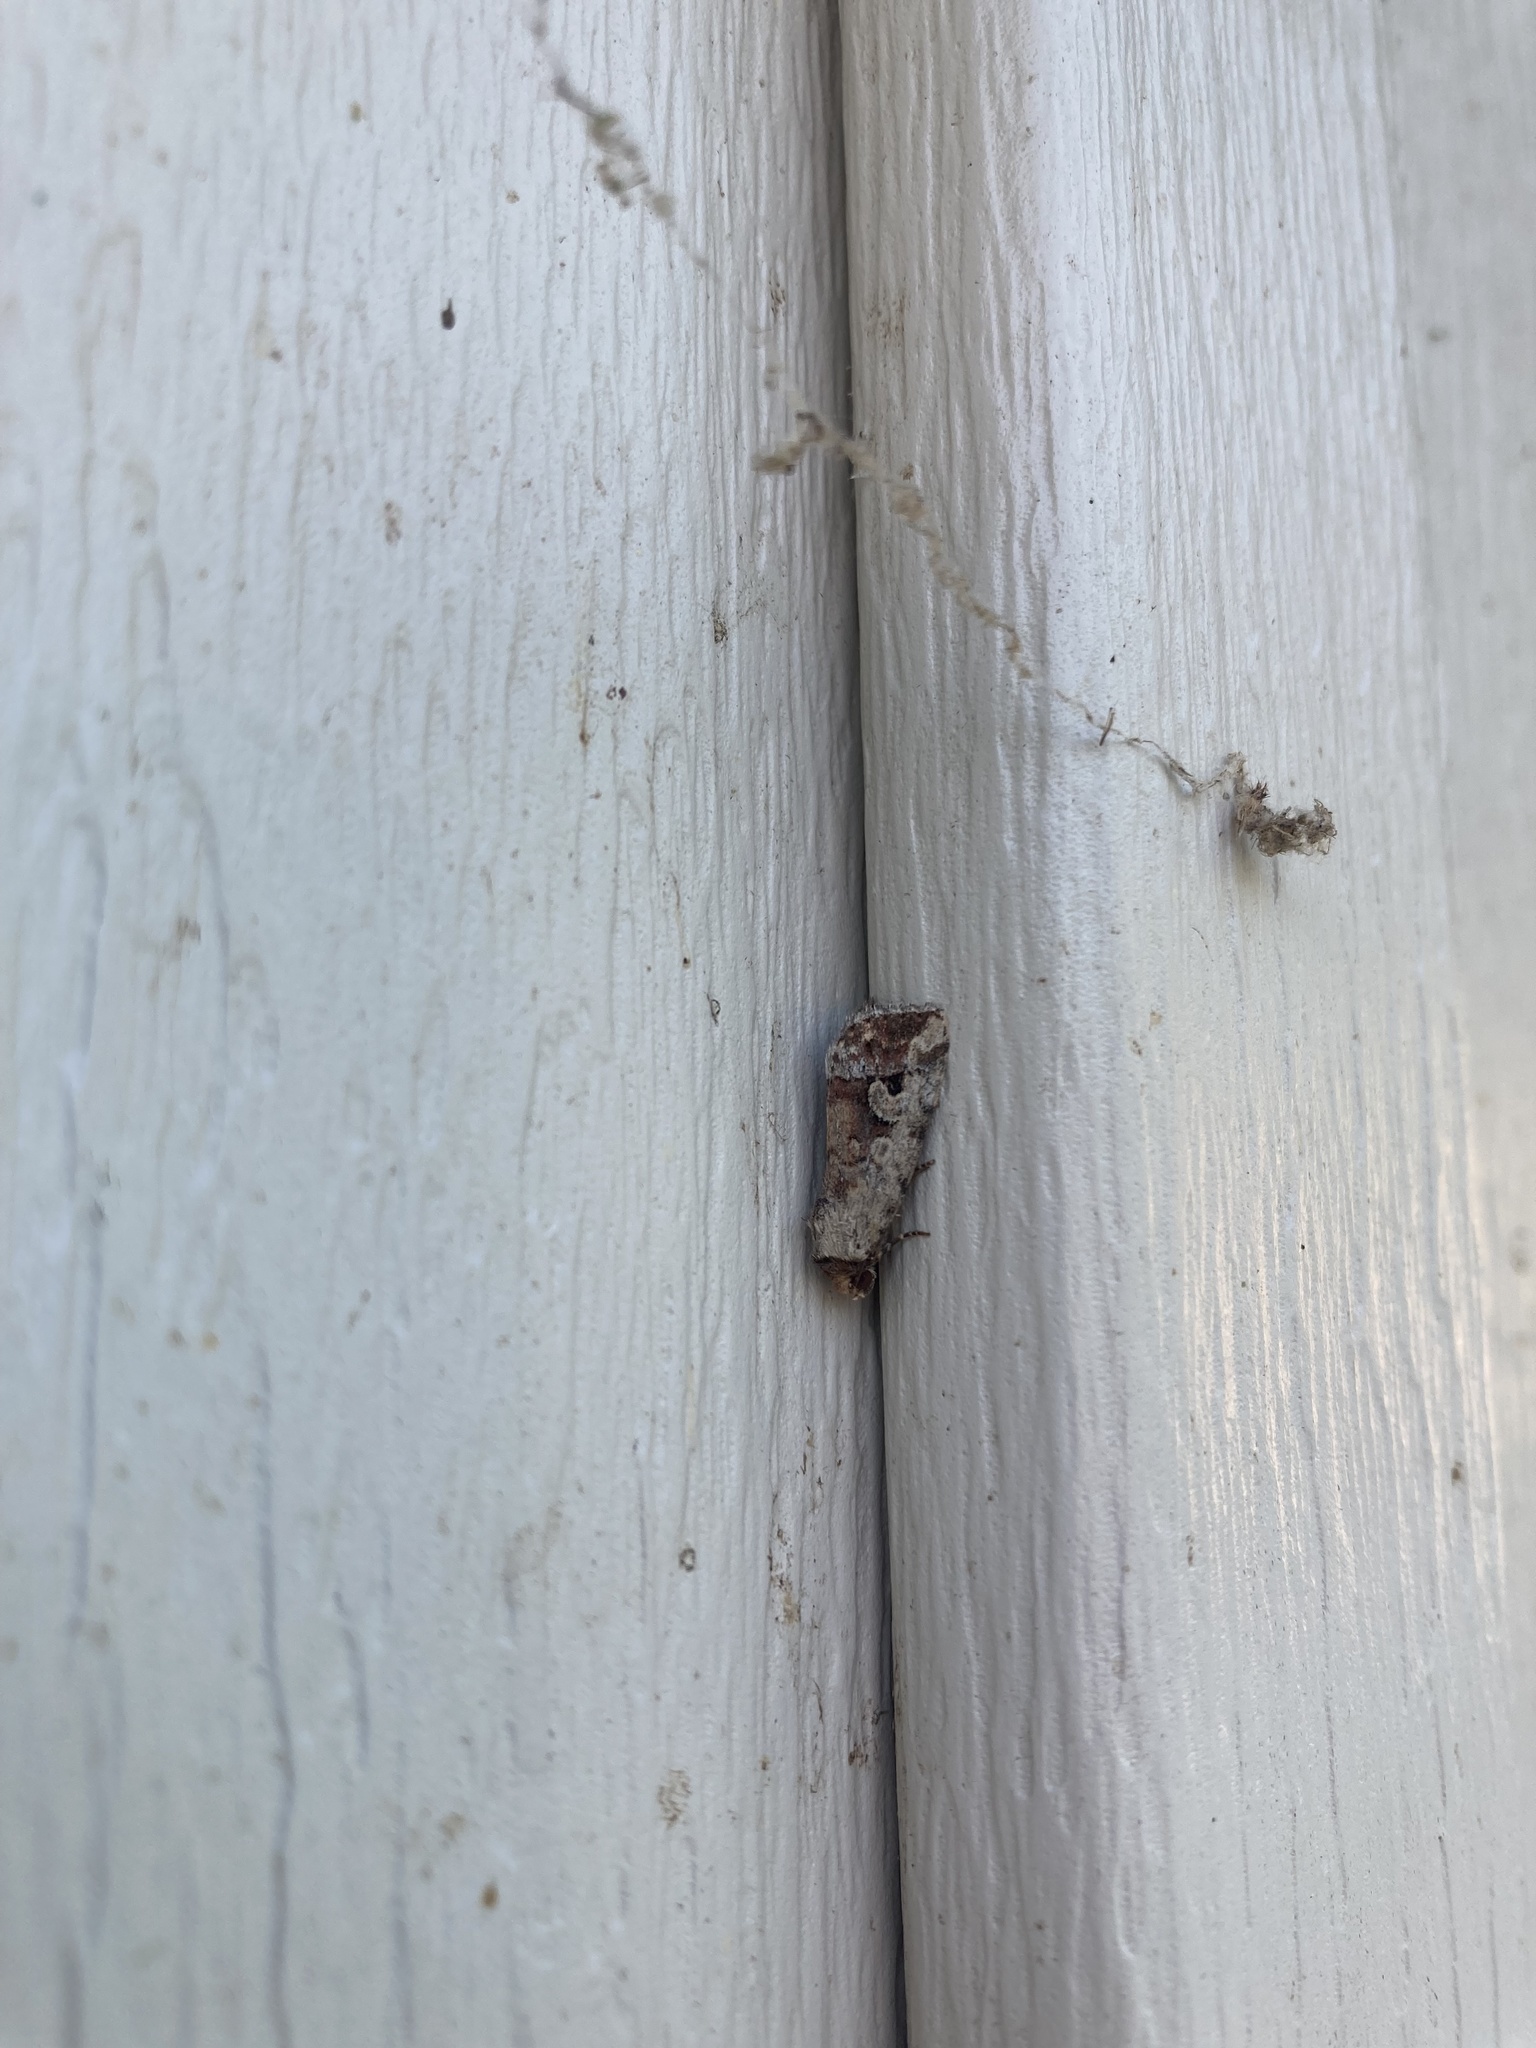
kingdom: Animalia
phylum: Arthropoda
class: Insecta
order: Lepidoptera
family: Noctuidae
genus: Elaphria
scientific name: Elaphria alapallida
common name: Pale-winged midget
